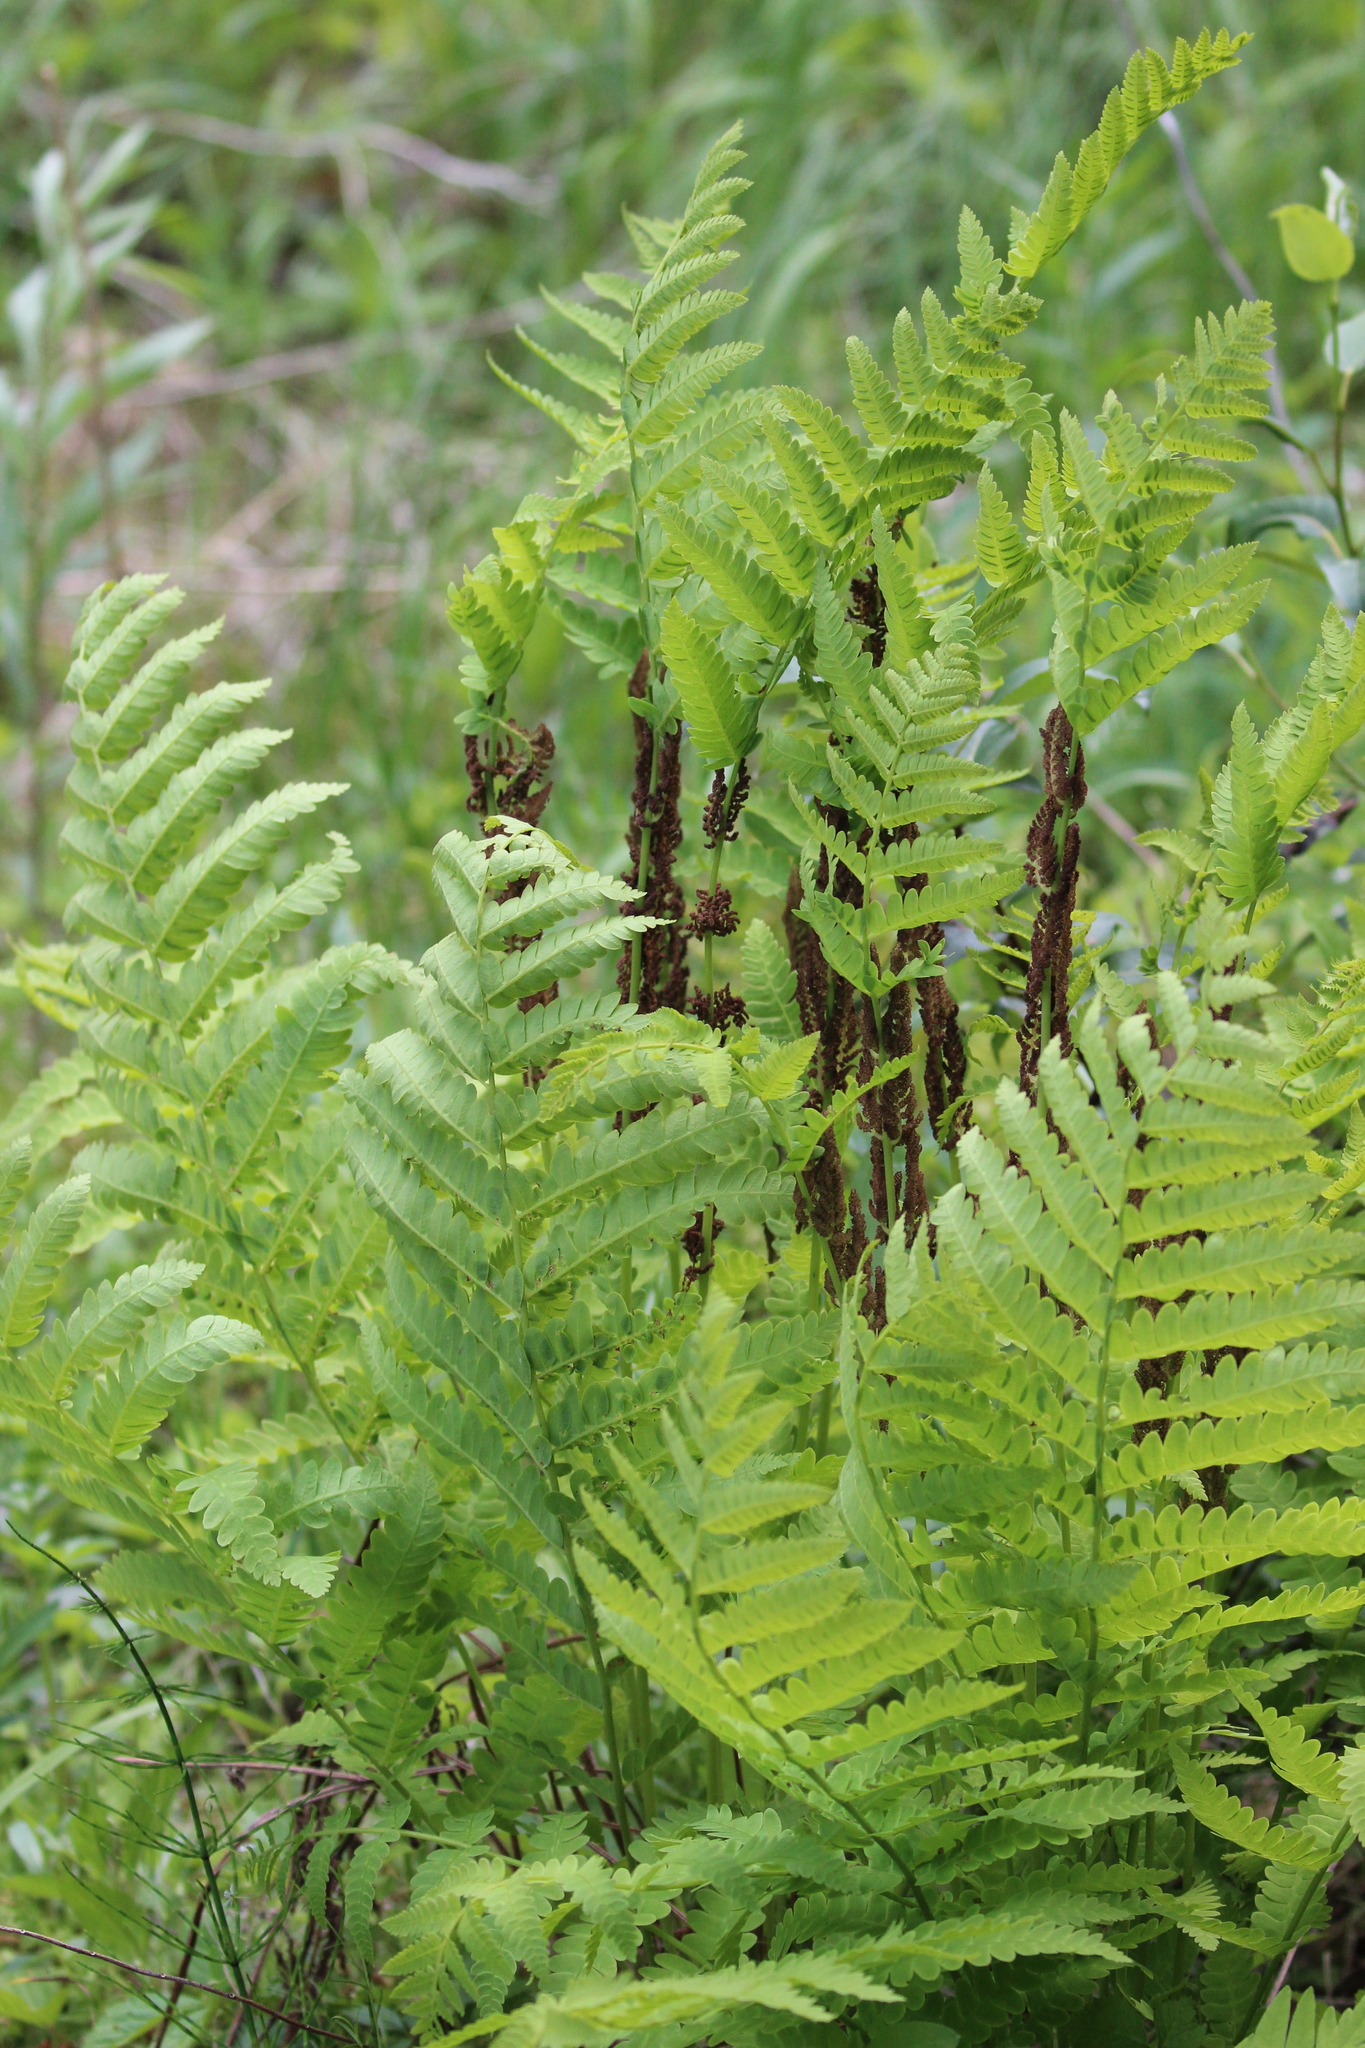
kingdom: Plantae
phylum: Tracheophyta
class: Polypodiopsida
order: Osmundales
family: Osmundaceae
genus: Claytosmunda
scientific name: Claytosmunda claytoniana
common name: Clayton's fern
